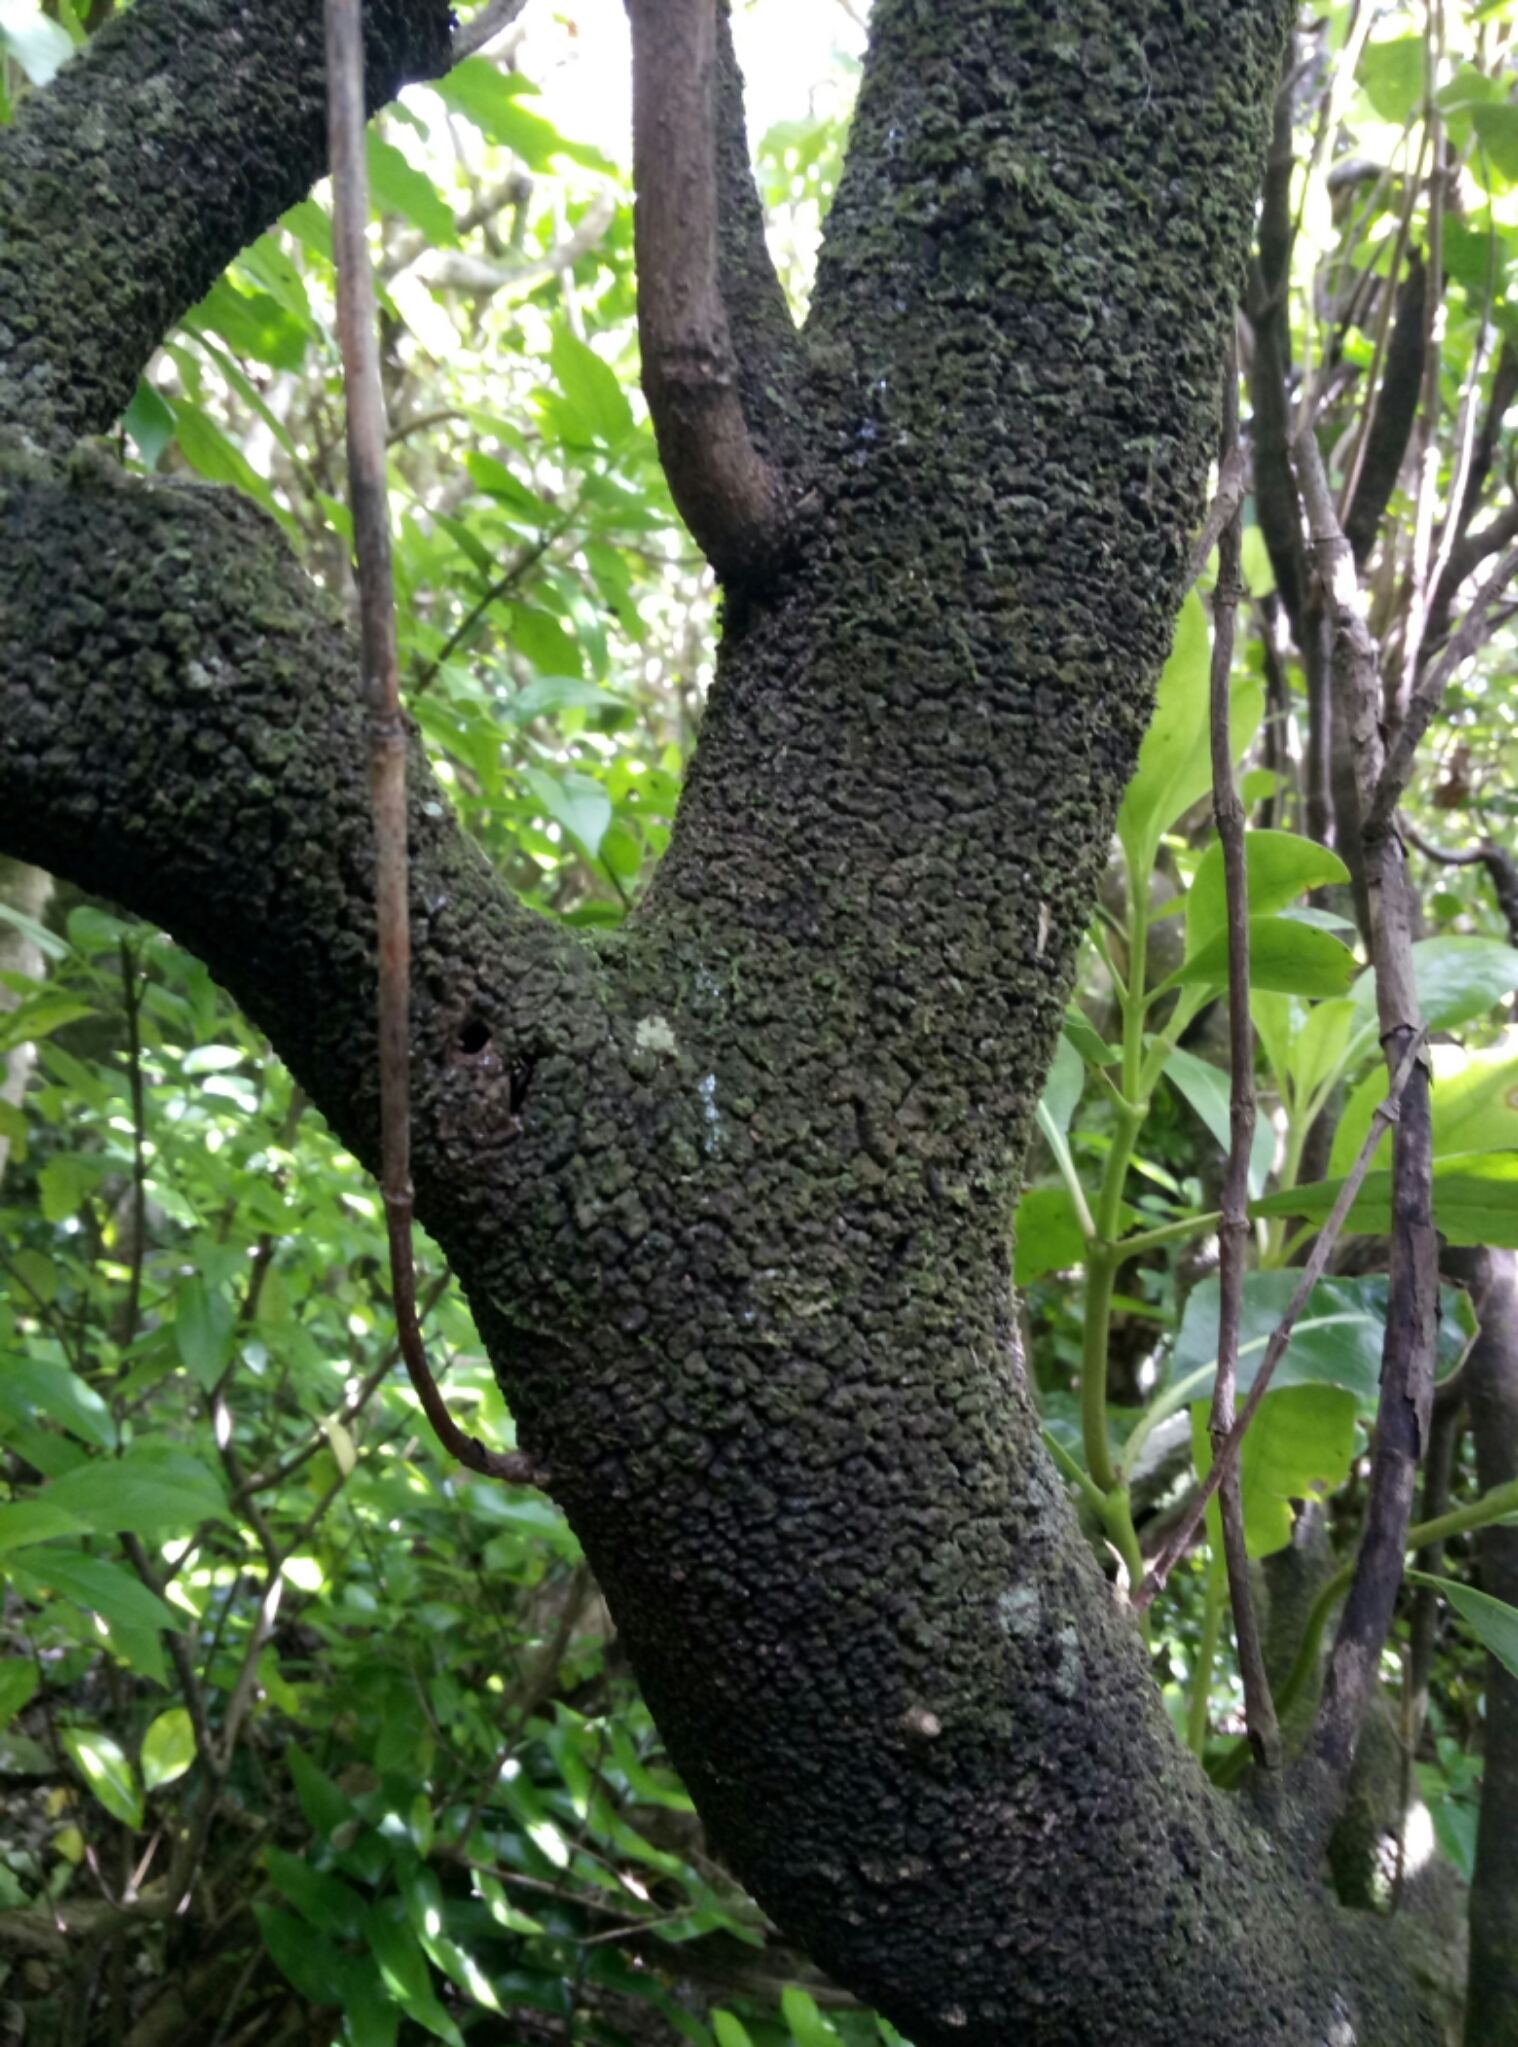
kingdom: Plantae
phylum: Tracheophyta
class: Magnoliopsida
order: Gentianales
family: Rubiaceae
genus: Coprosma
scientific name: Coprosma lucida
